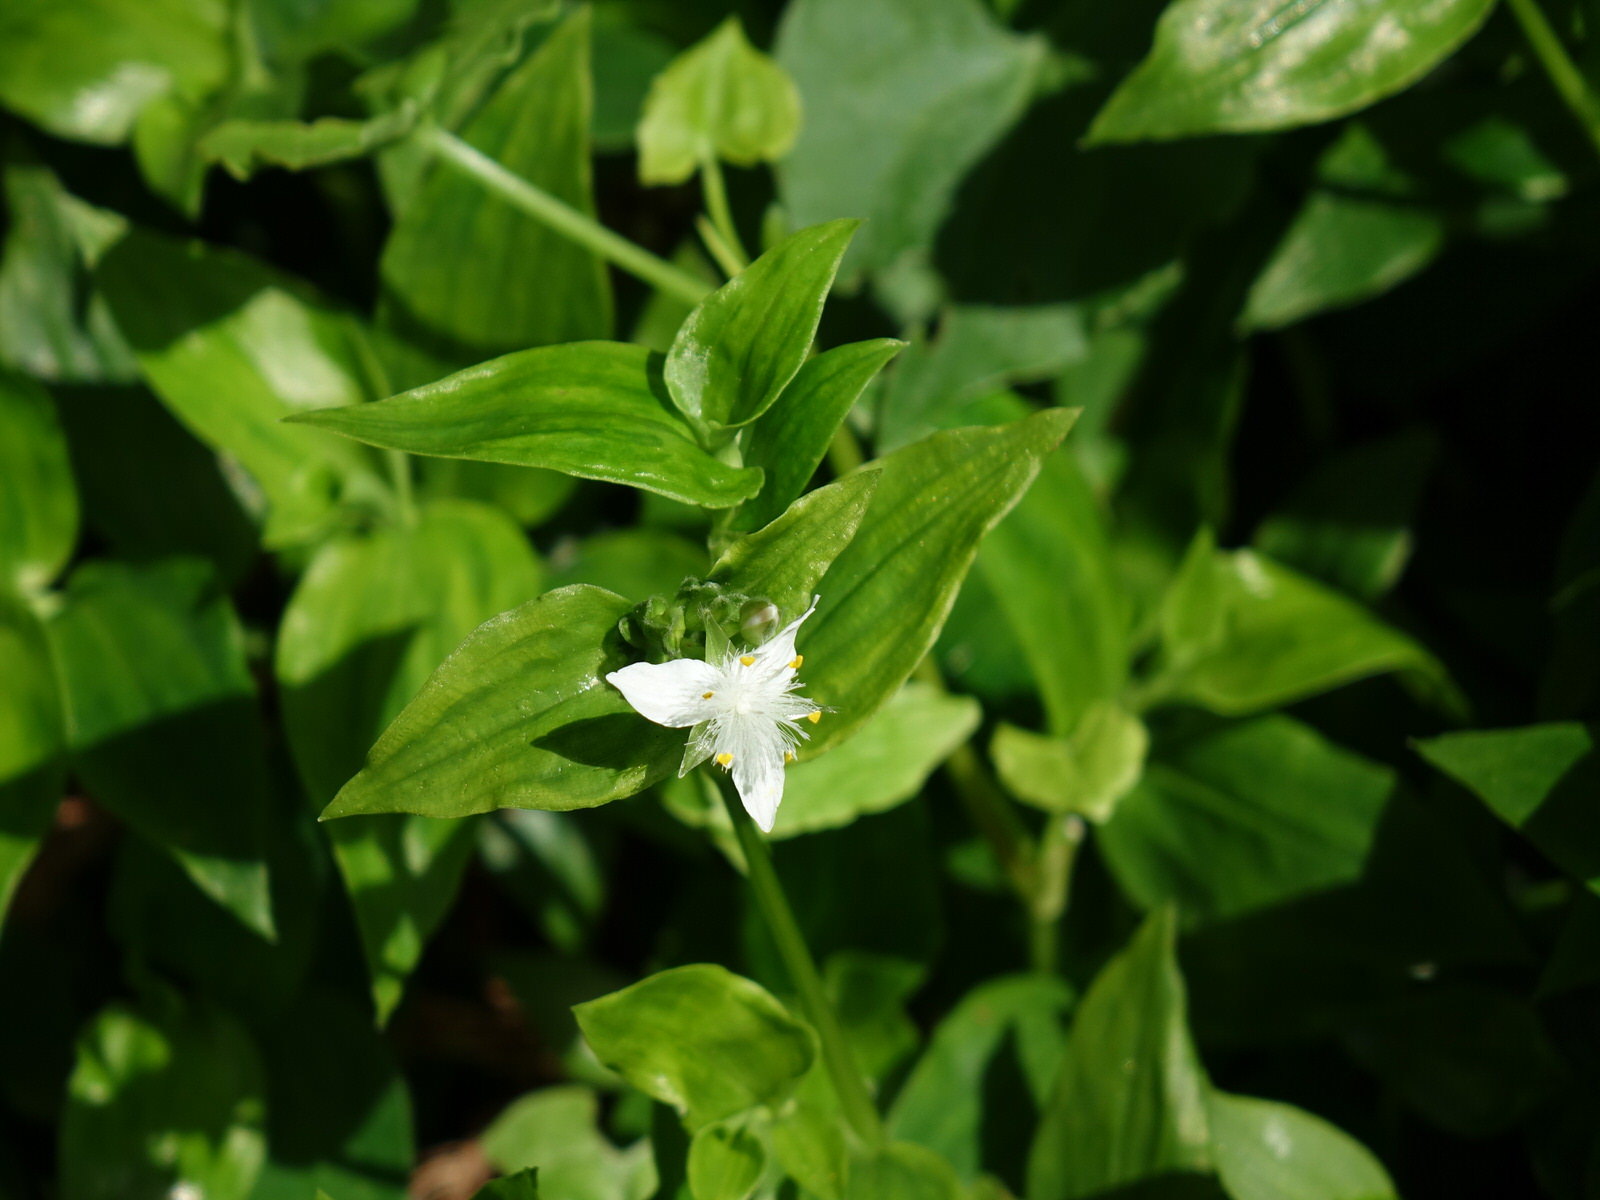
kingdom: Plantae
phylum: Tracheophyta
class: Liliopsida
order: Commelinales
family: Commelinaceae
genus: Tradescantia
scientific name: Tradescantia fluminensis
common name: Wandering-jew
